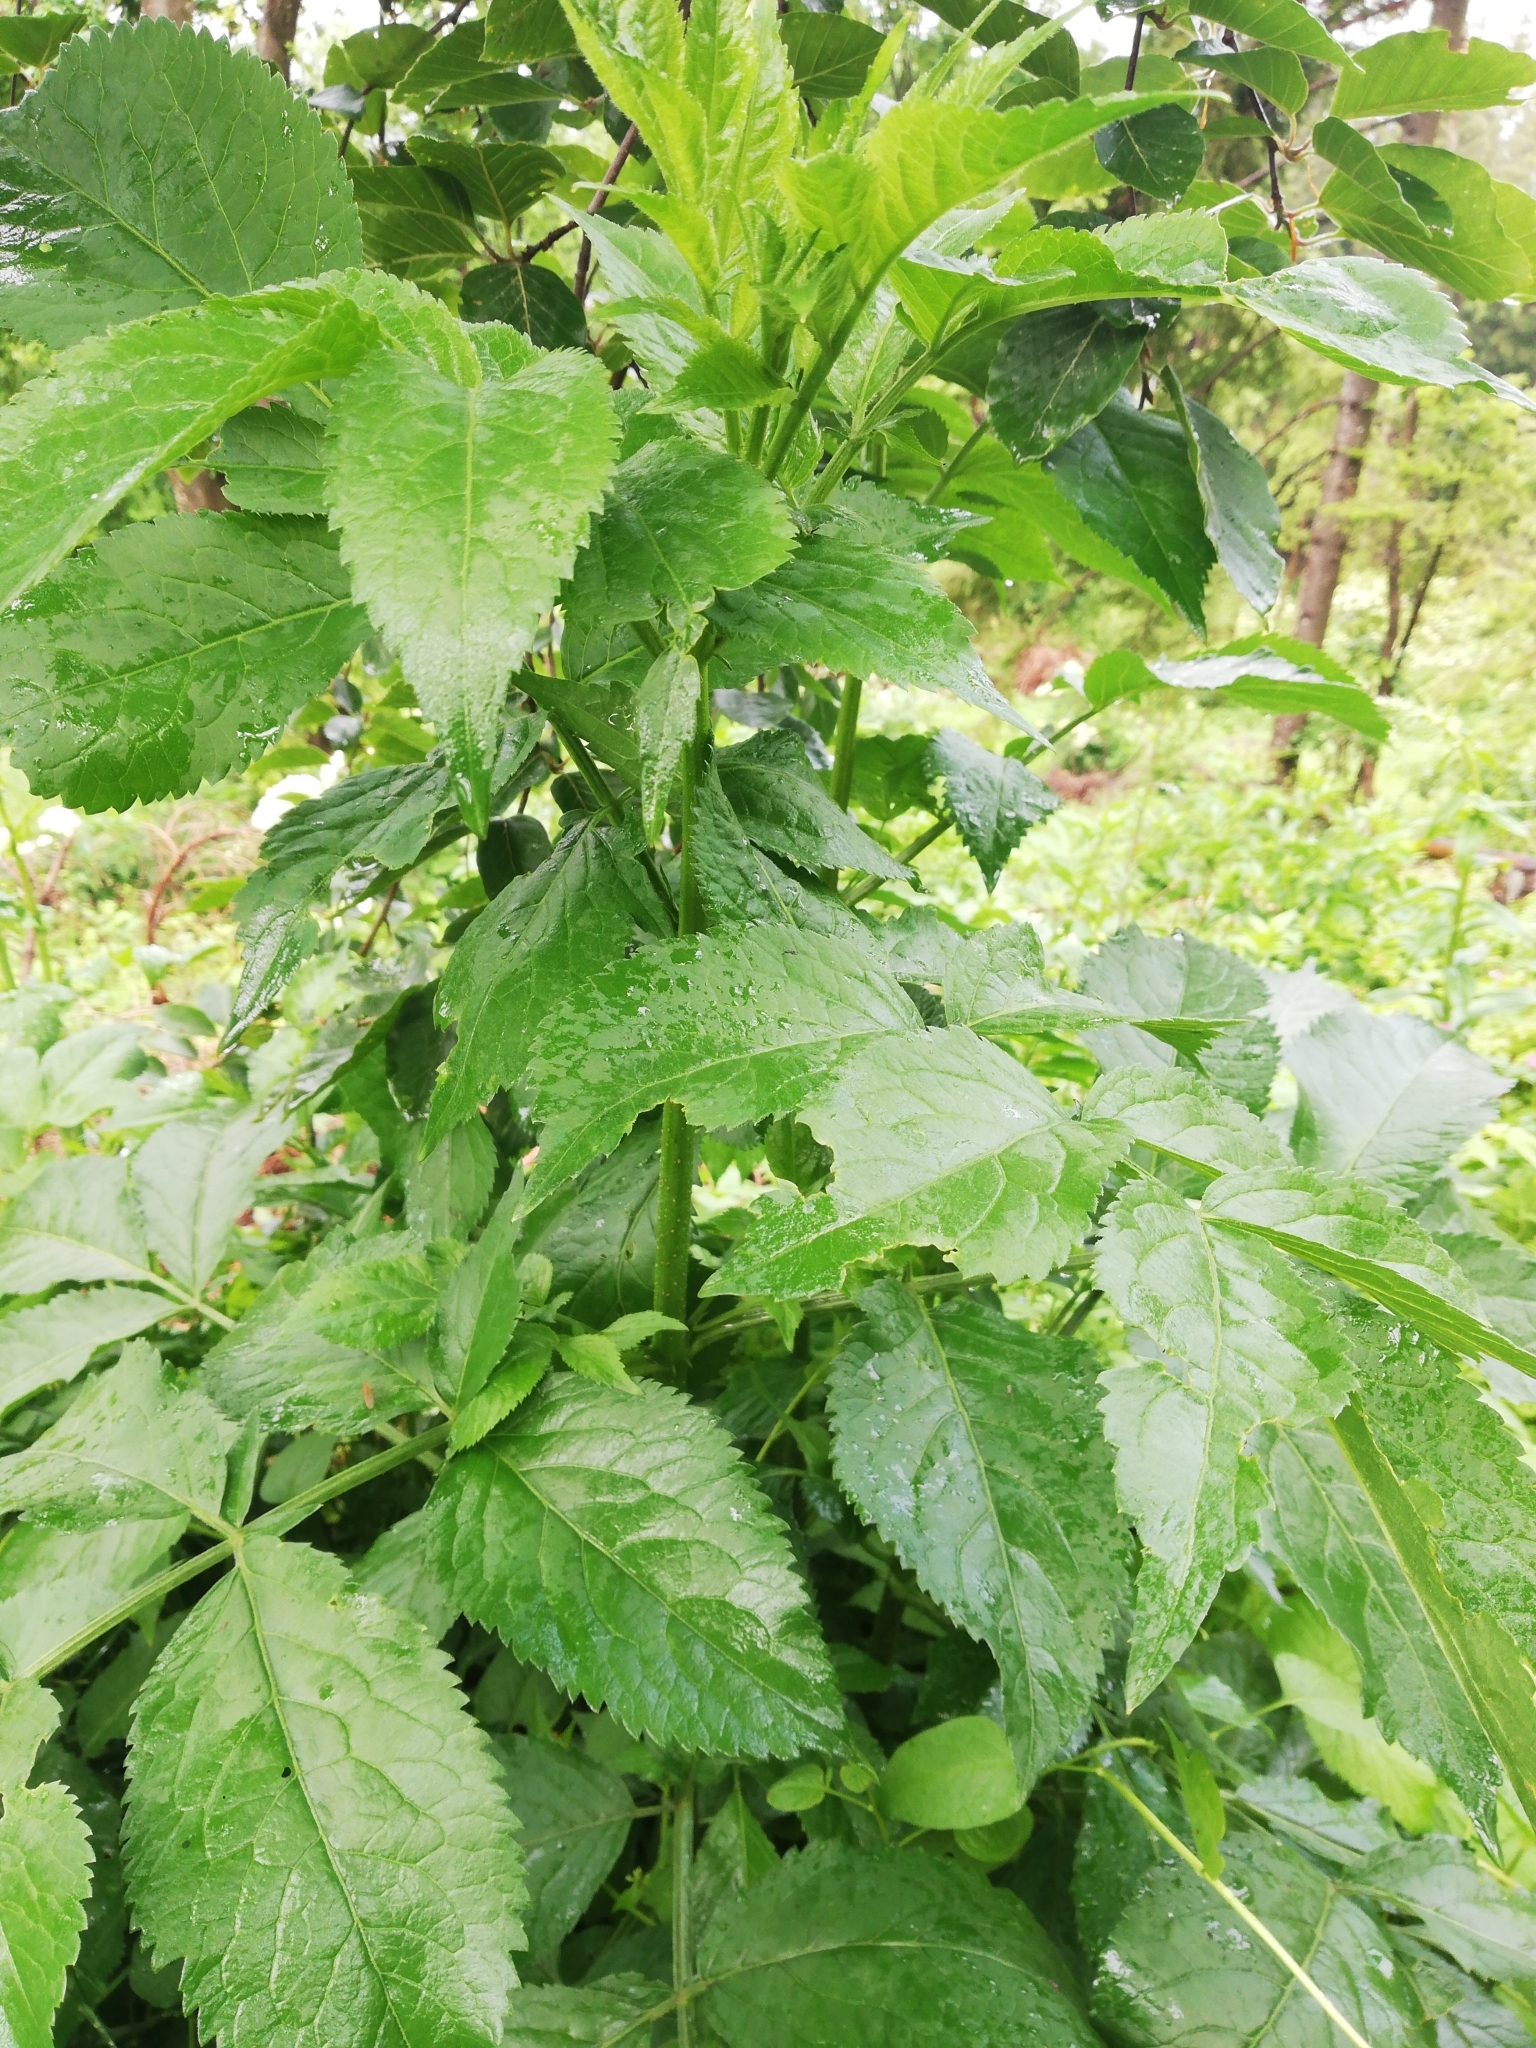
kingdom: Plantae
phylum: Tracheophyta
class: Magnoliopsida
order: Dipsacales
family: Viburnaceae
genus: Sambucus
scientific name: Sambucus nigra
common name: Elder
